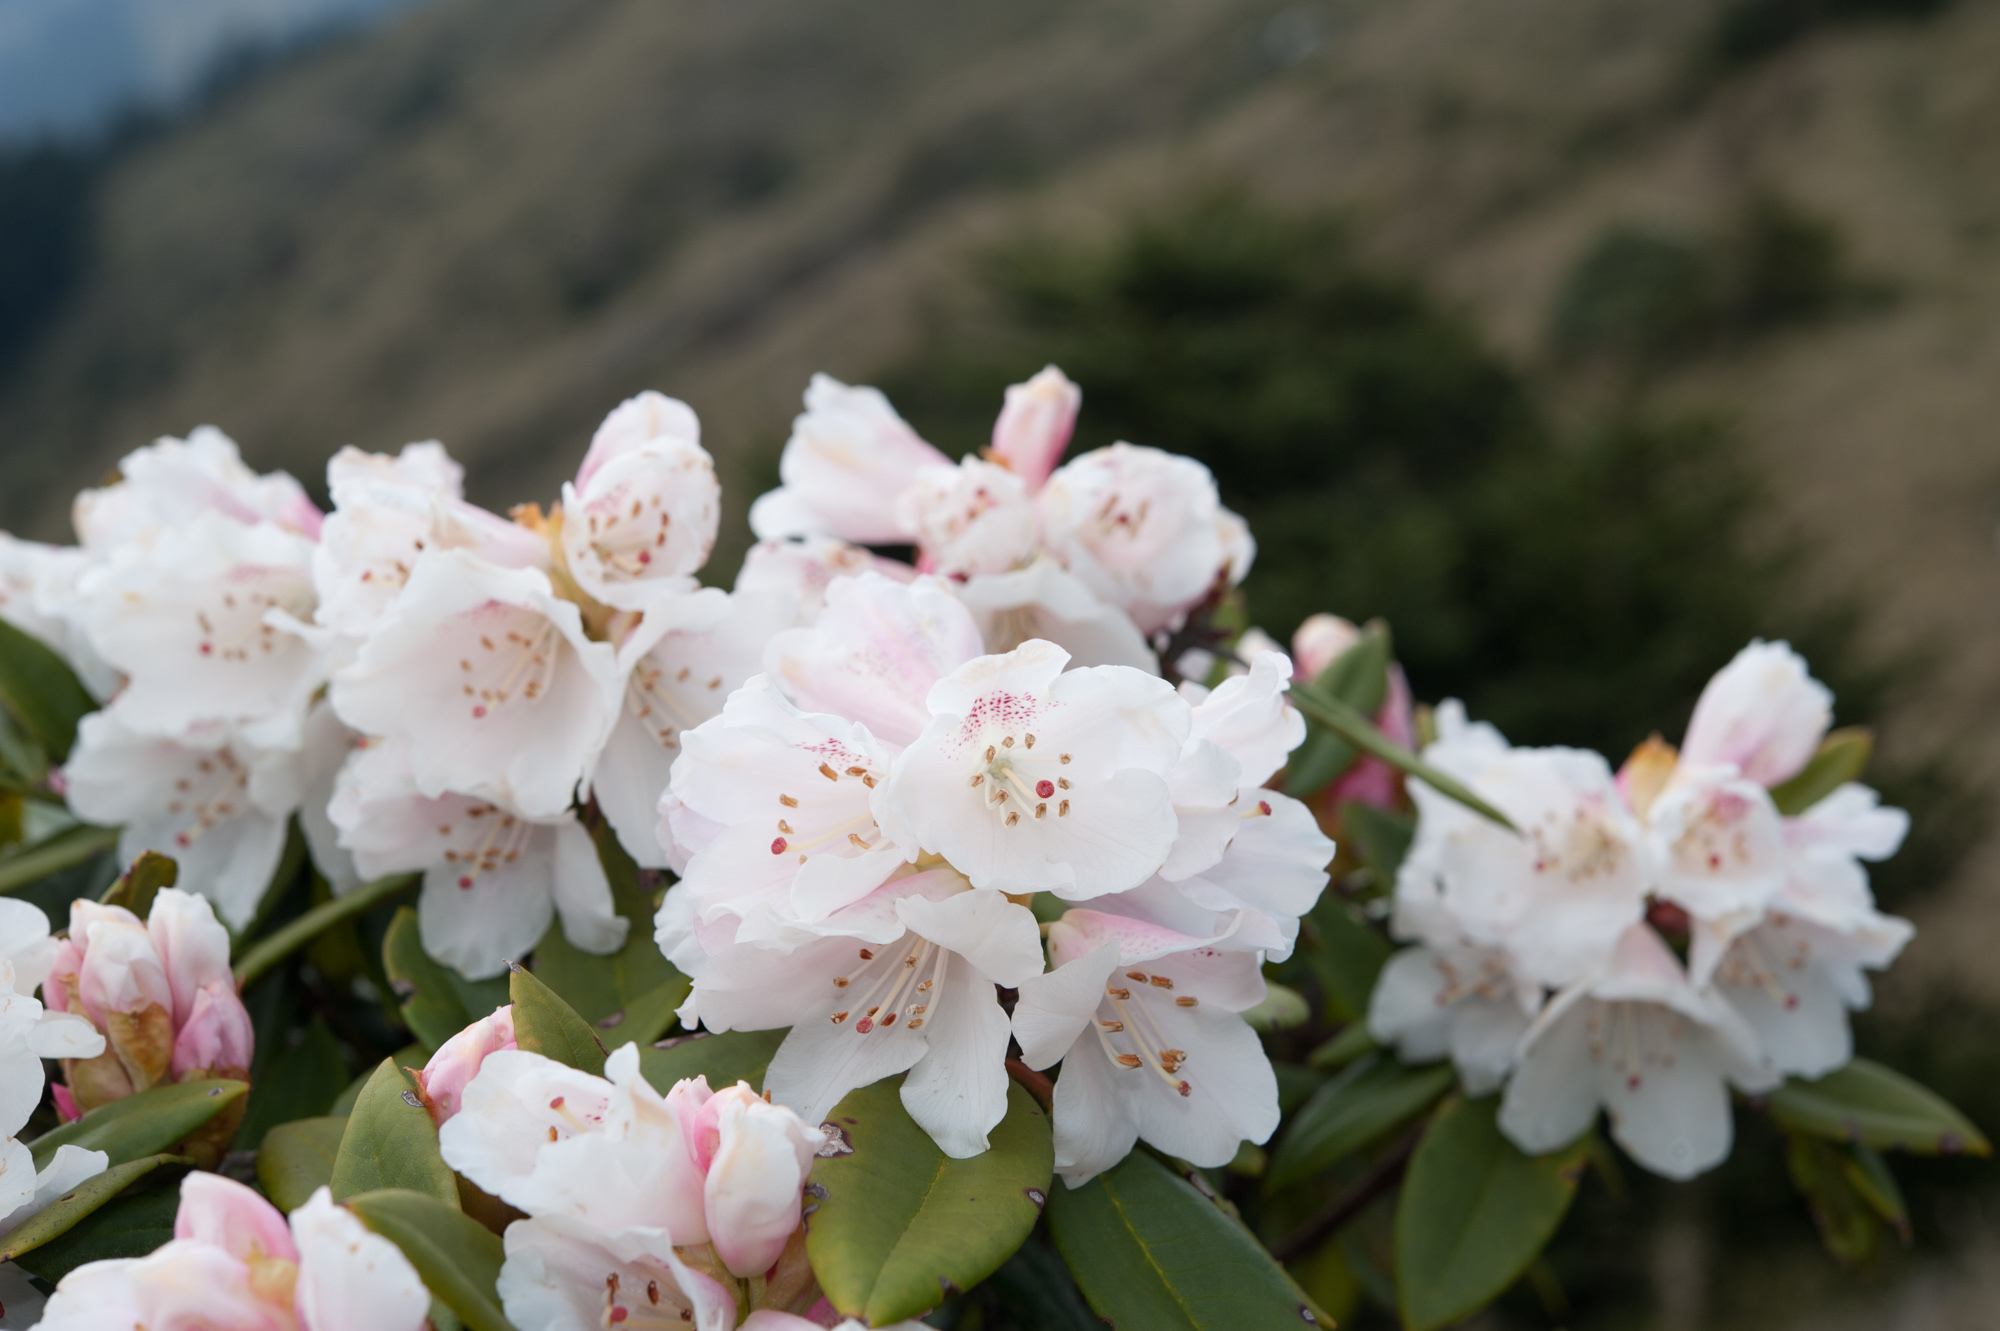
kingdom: Plantae
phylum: Tracheophyta
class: Magnoliopsida
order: Ericales
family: Ericaceae
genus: Rhododendron
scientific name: Rhododendron pseudochrysanthum
